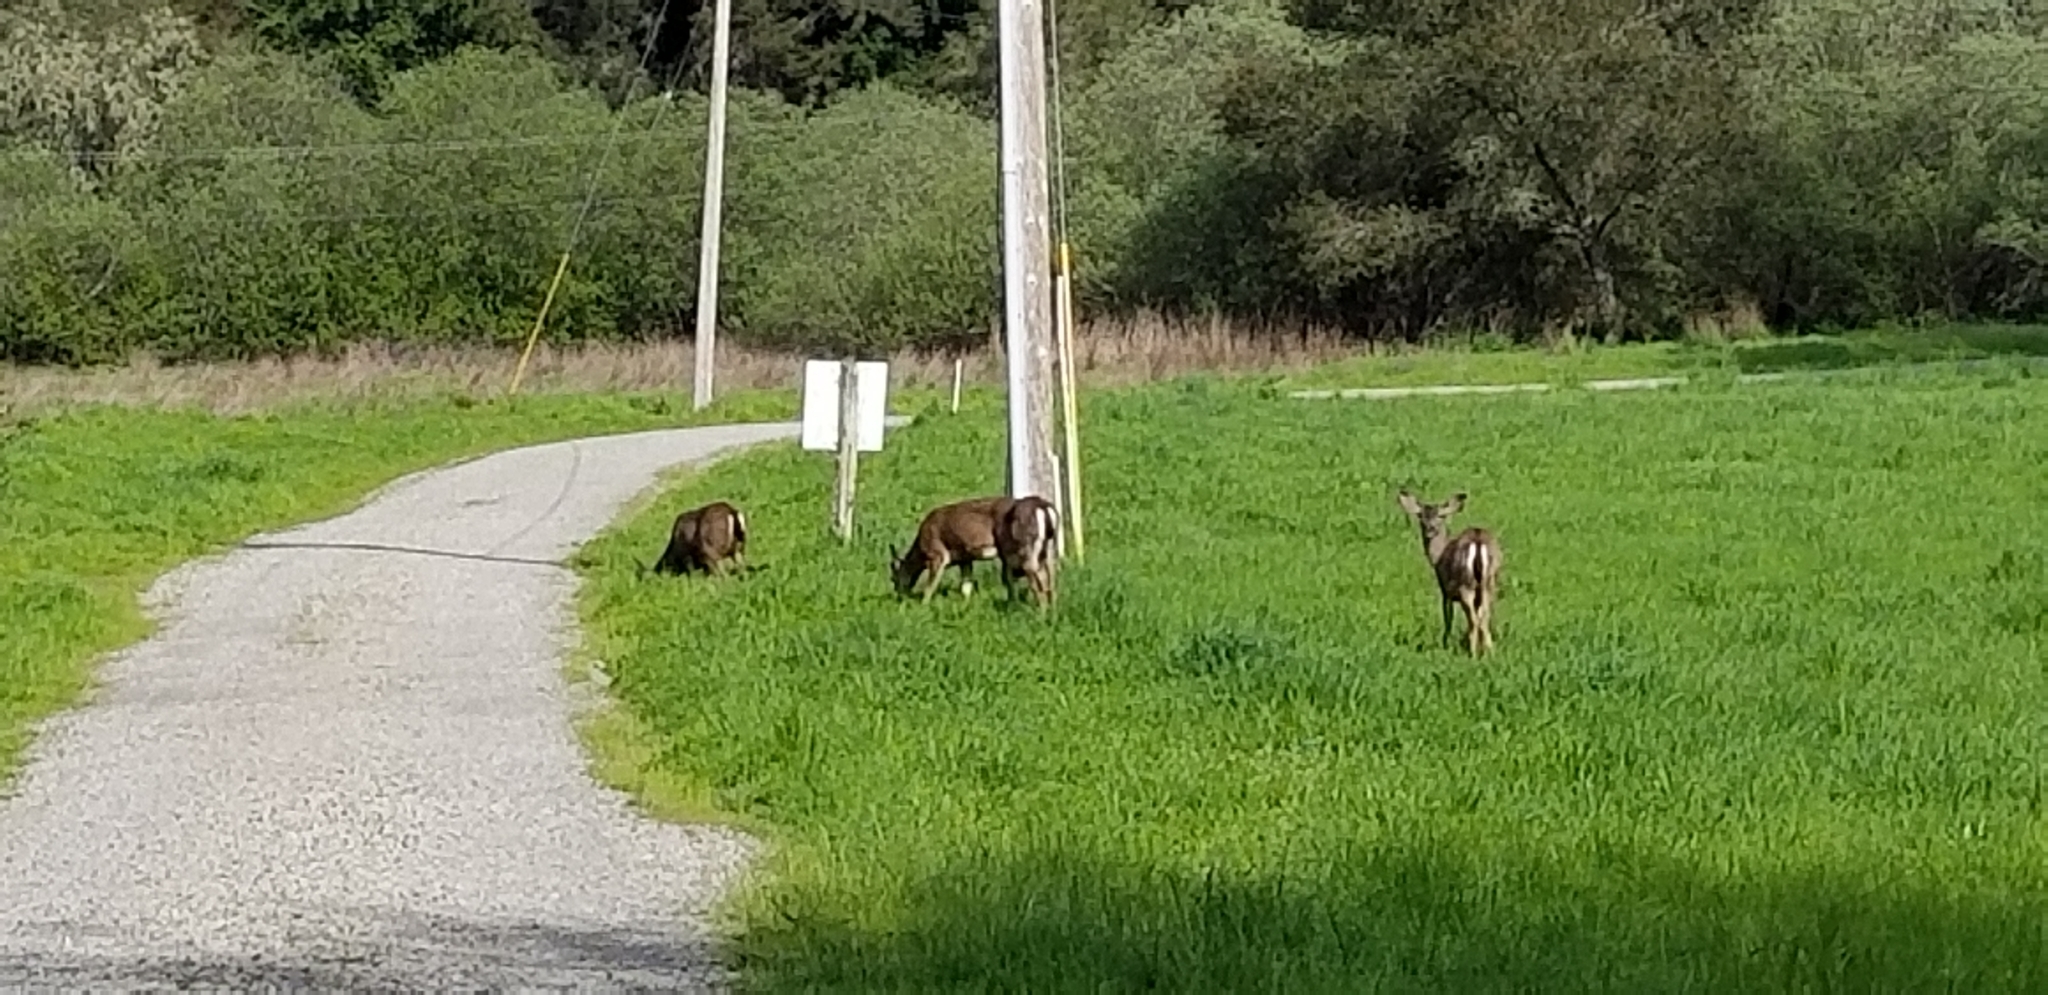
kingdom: Animalia
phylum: Chordata
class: Mammalia
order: Artiodactyla
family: Cervidae
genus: Odocoileus
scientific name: Odocoileus hemionus
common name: Mule deer
